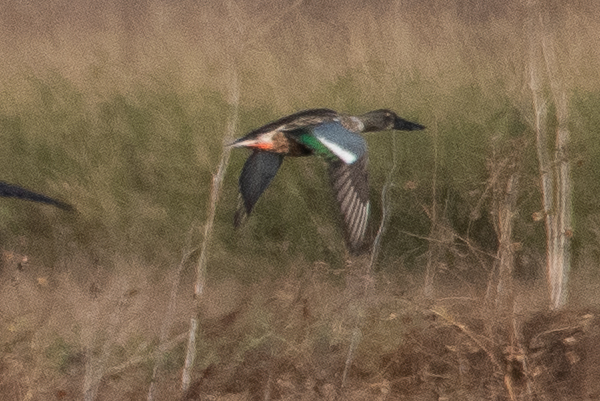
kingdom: Animalia
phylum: Chordata
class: Aves
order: Anseriformes
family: Anatidae
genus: Spatula
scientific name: Spatula clypeata
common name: Northern shoveler
